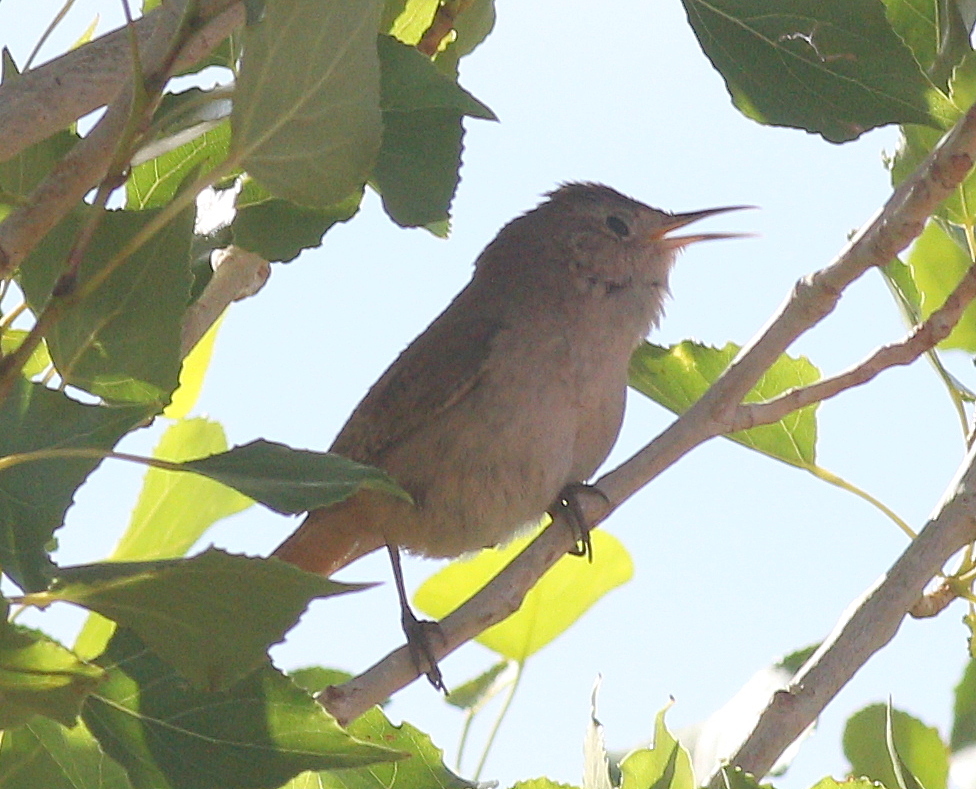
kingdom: Animalia
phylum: Chordata
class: Aves
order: Passeriformes
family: Troglodytidae
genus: Troglodytes
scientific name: Troglodytes aedon
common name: House wren
